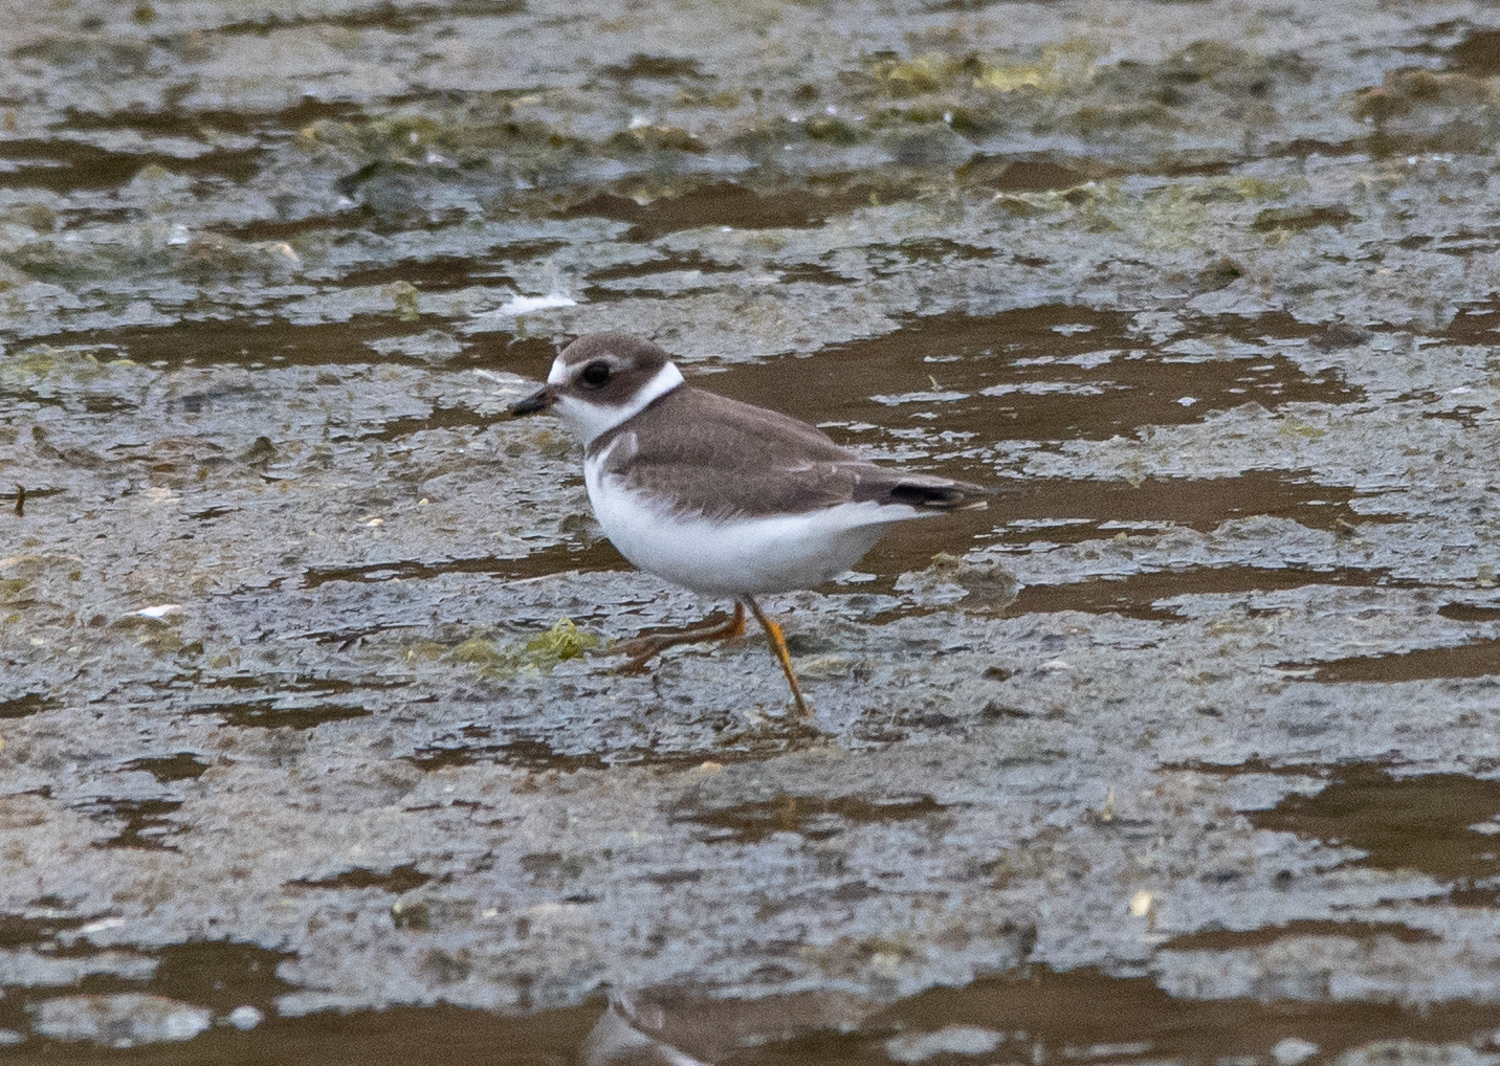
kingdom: Animalia
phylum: Chordata
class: Aves
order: Charadriiformes
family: Charadriidae
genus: Charadrius
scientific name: Charadrius semipalmatus
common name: Semipalmated plover
